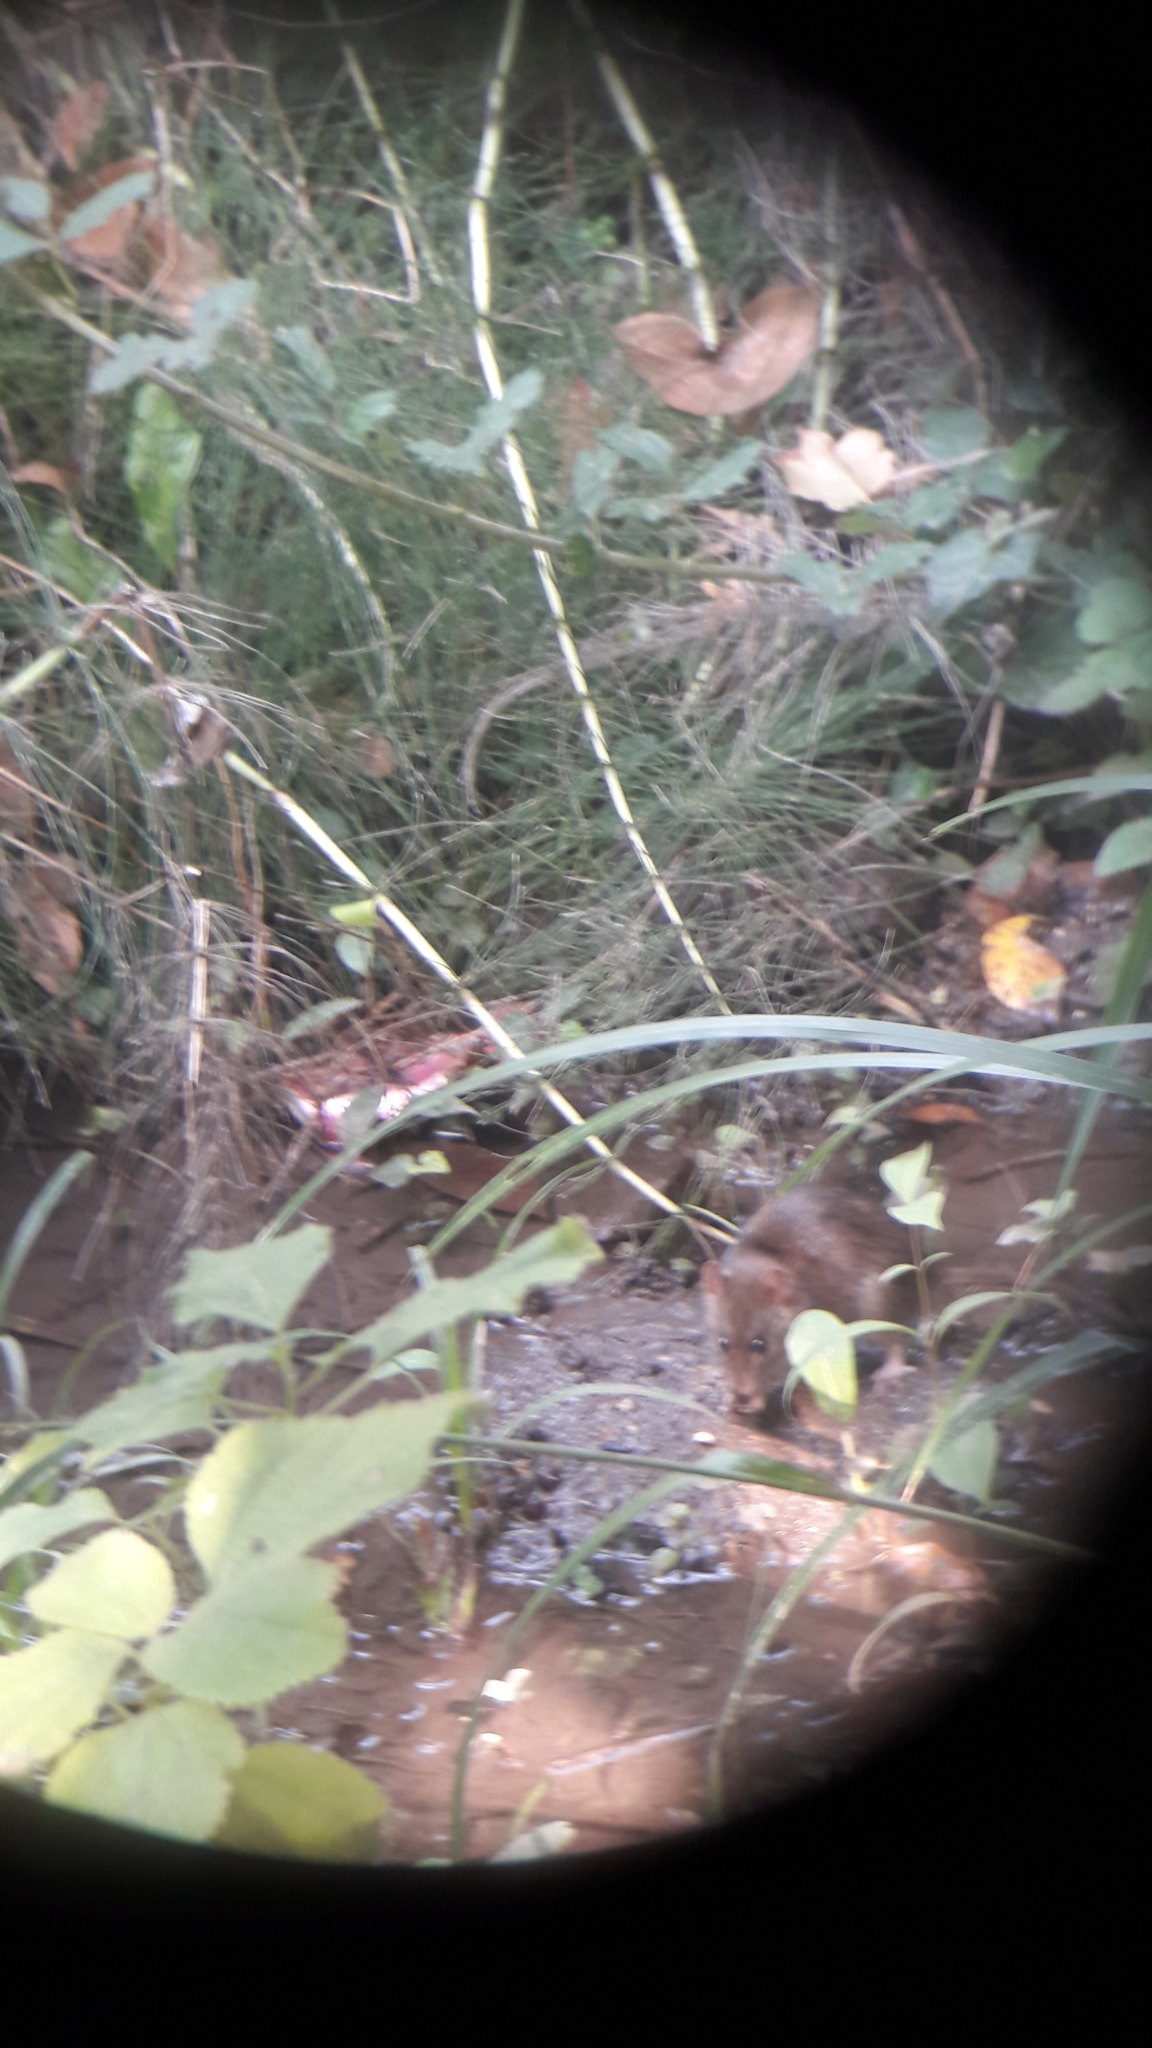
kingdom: Animalia
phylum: Chordata
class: Mammalia
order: Rodentia
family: Muridae
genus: Rattus
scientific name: Rattus norvegicus
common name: Brown rat
